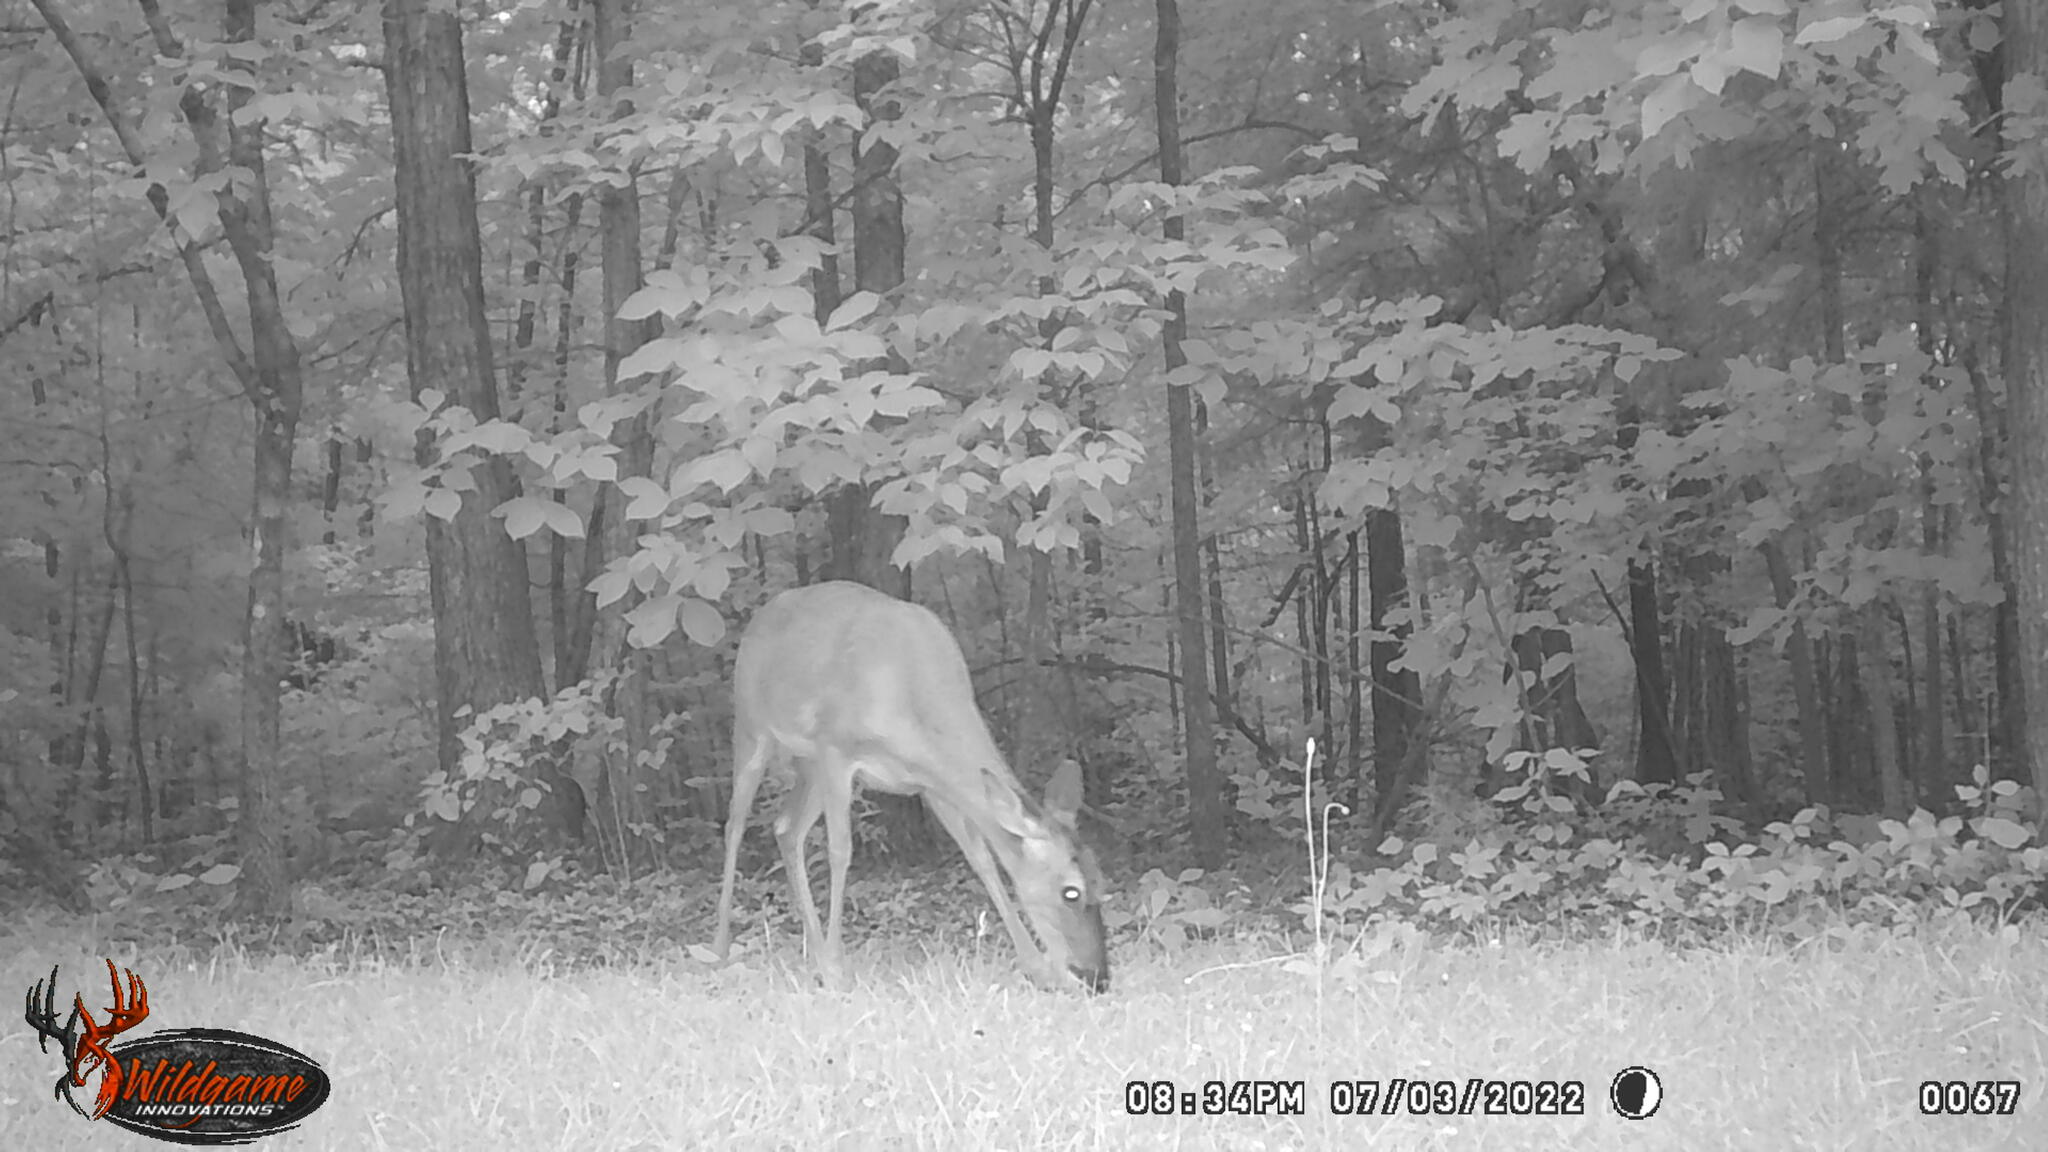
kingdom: Animalia
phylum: Chordata
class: Mammalia
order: Artiodactyla
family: Cervidae
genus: Odocoileus
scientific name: Odocoileus virginianus
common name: White-tailed deer
